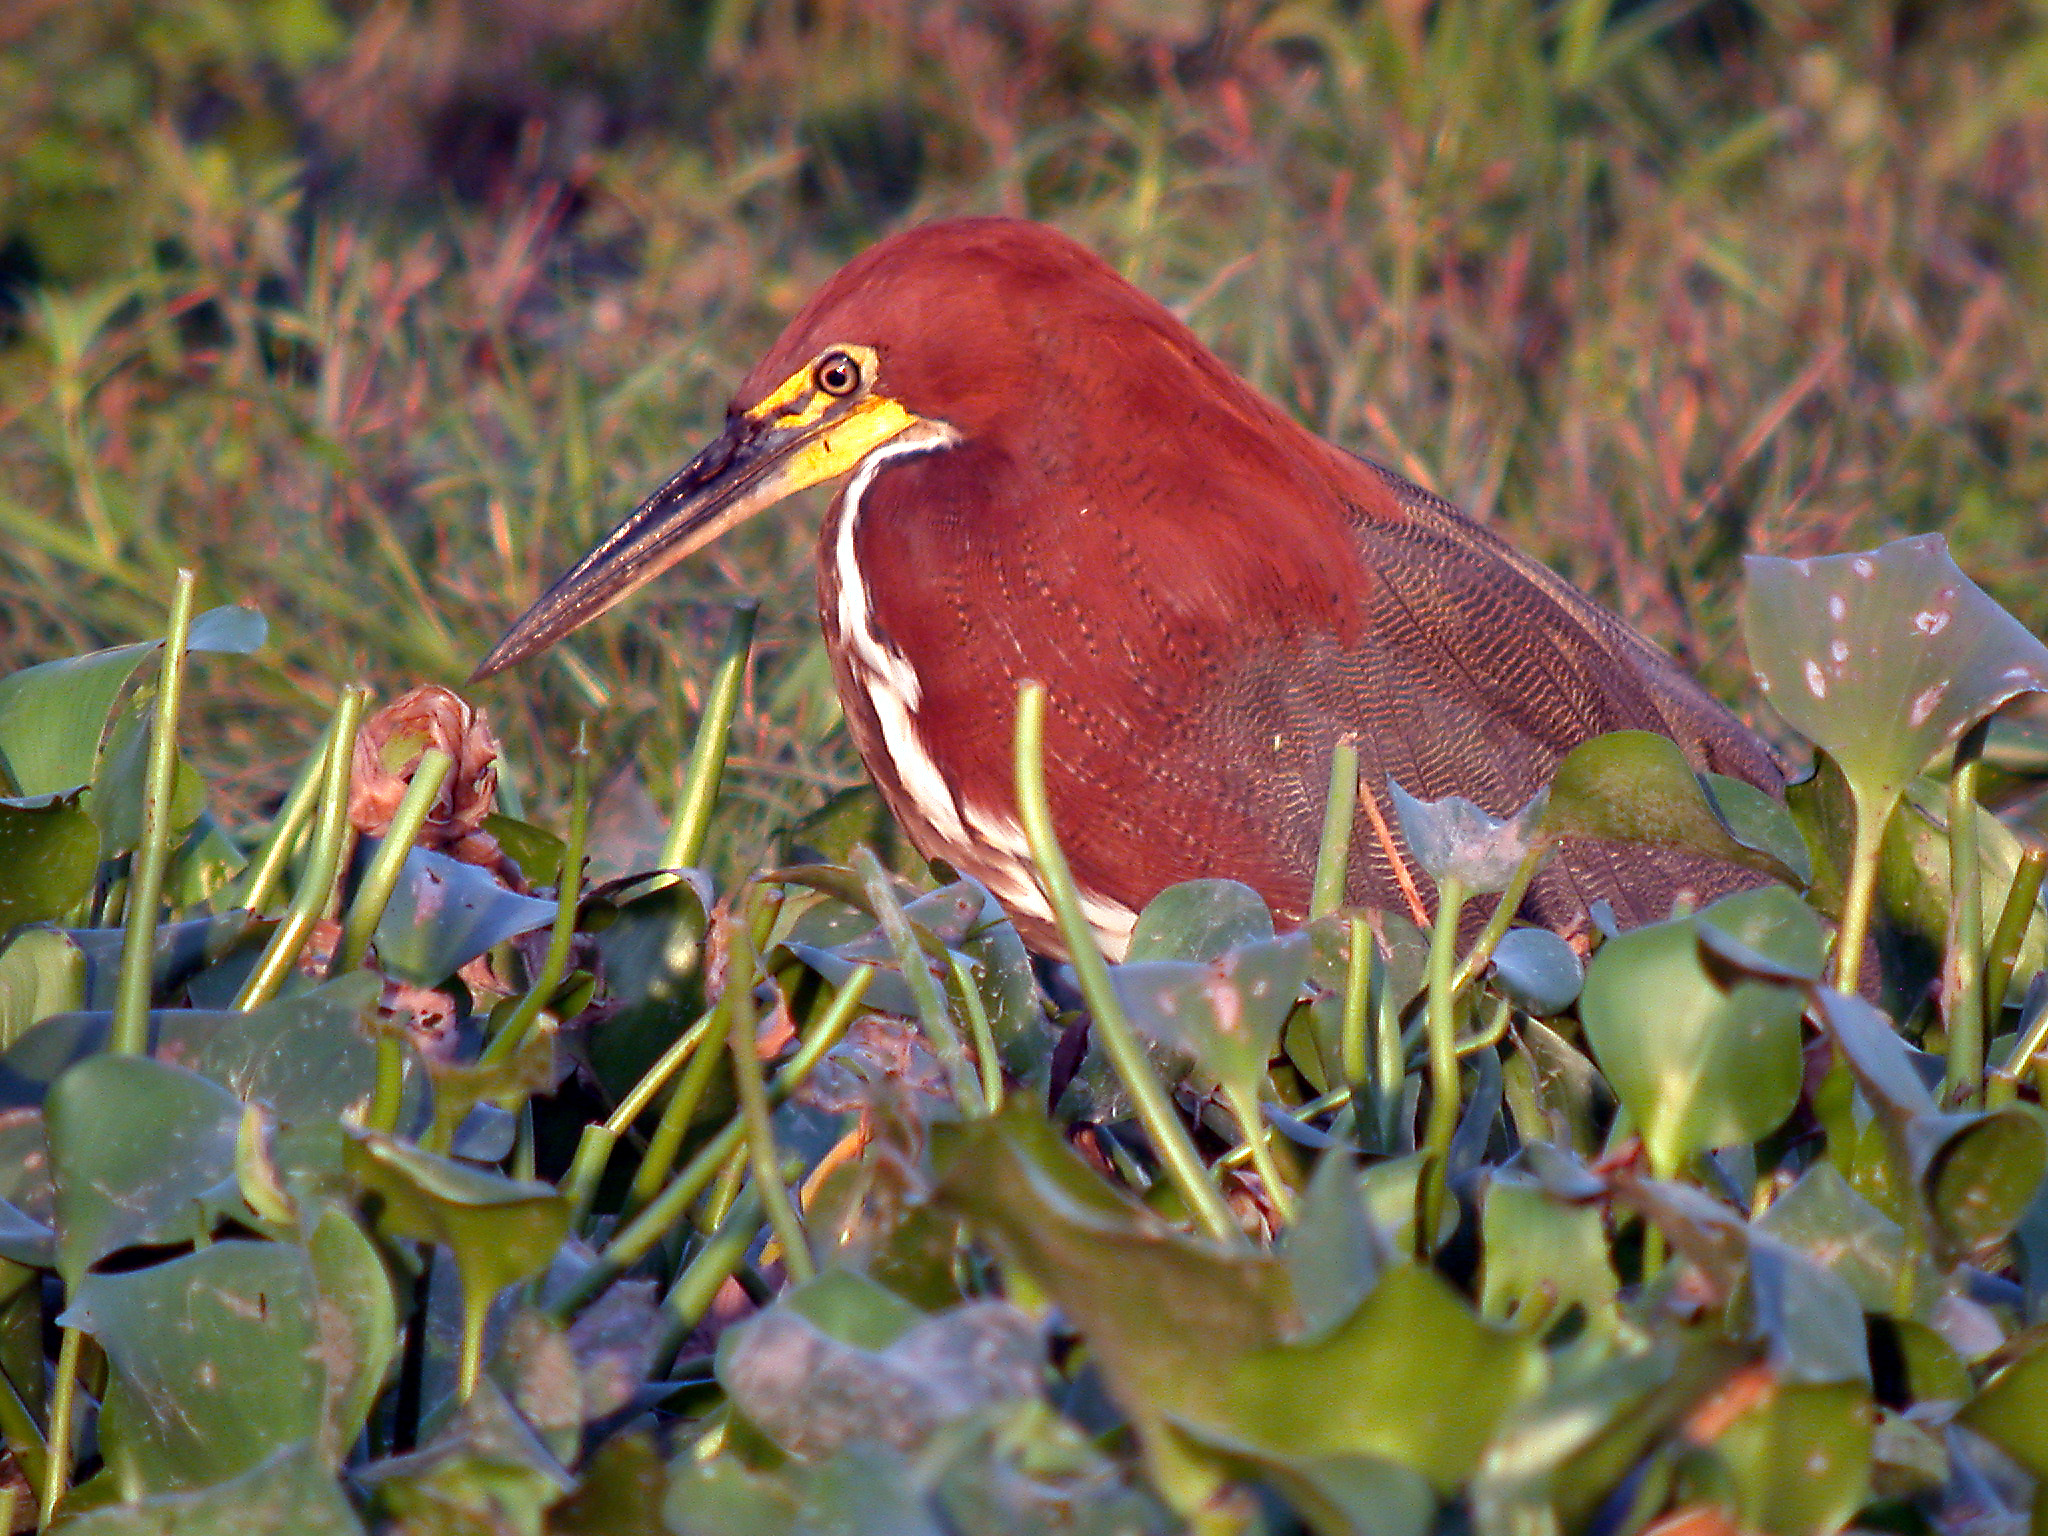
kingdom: Animalia
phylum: Chordata
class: Aves
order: Pelecaniformes
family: Ardeidae
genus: Tigrisoma
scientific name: Tigrisoma lineatum
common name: Rufescent tiger-heron
